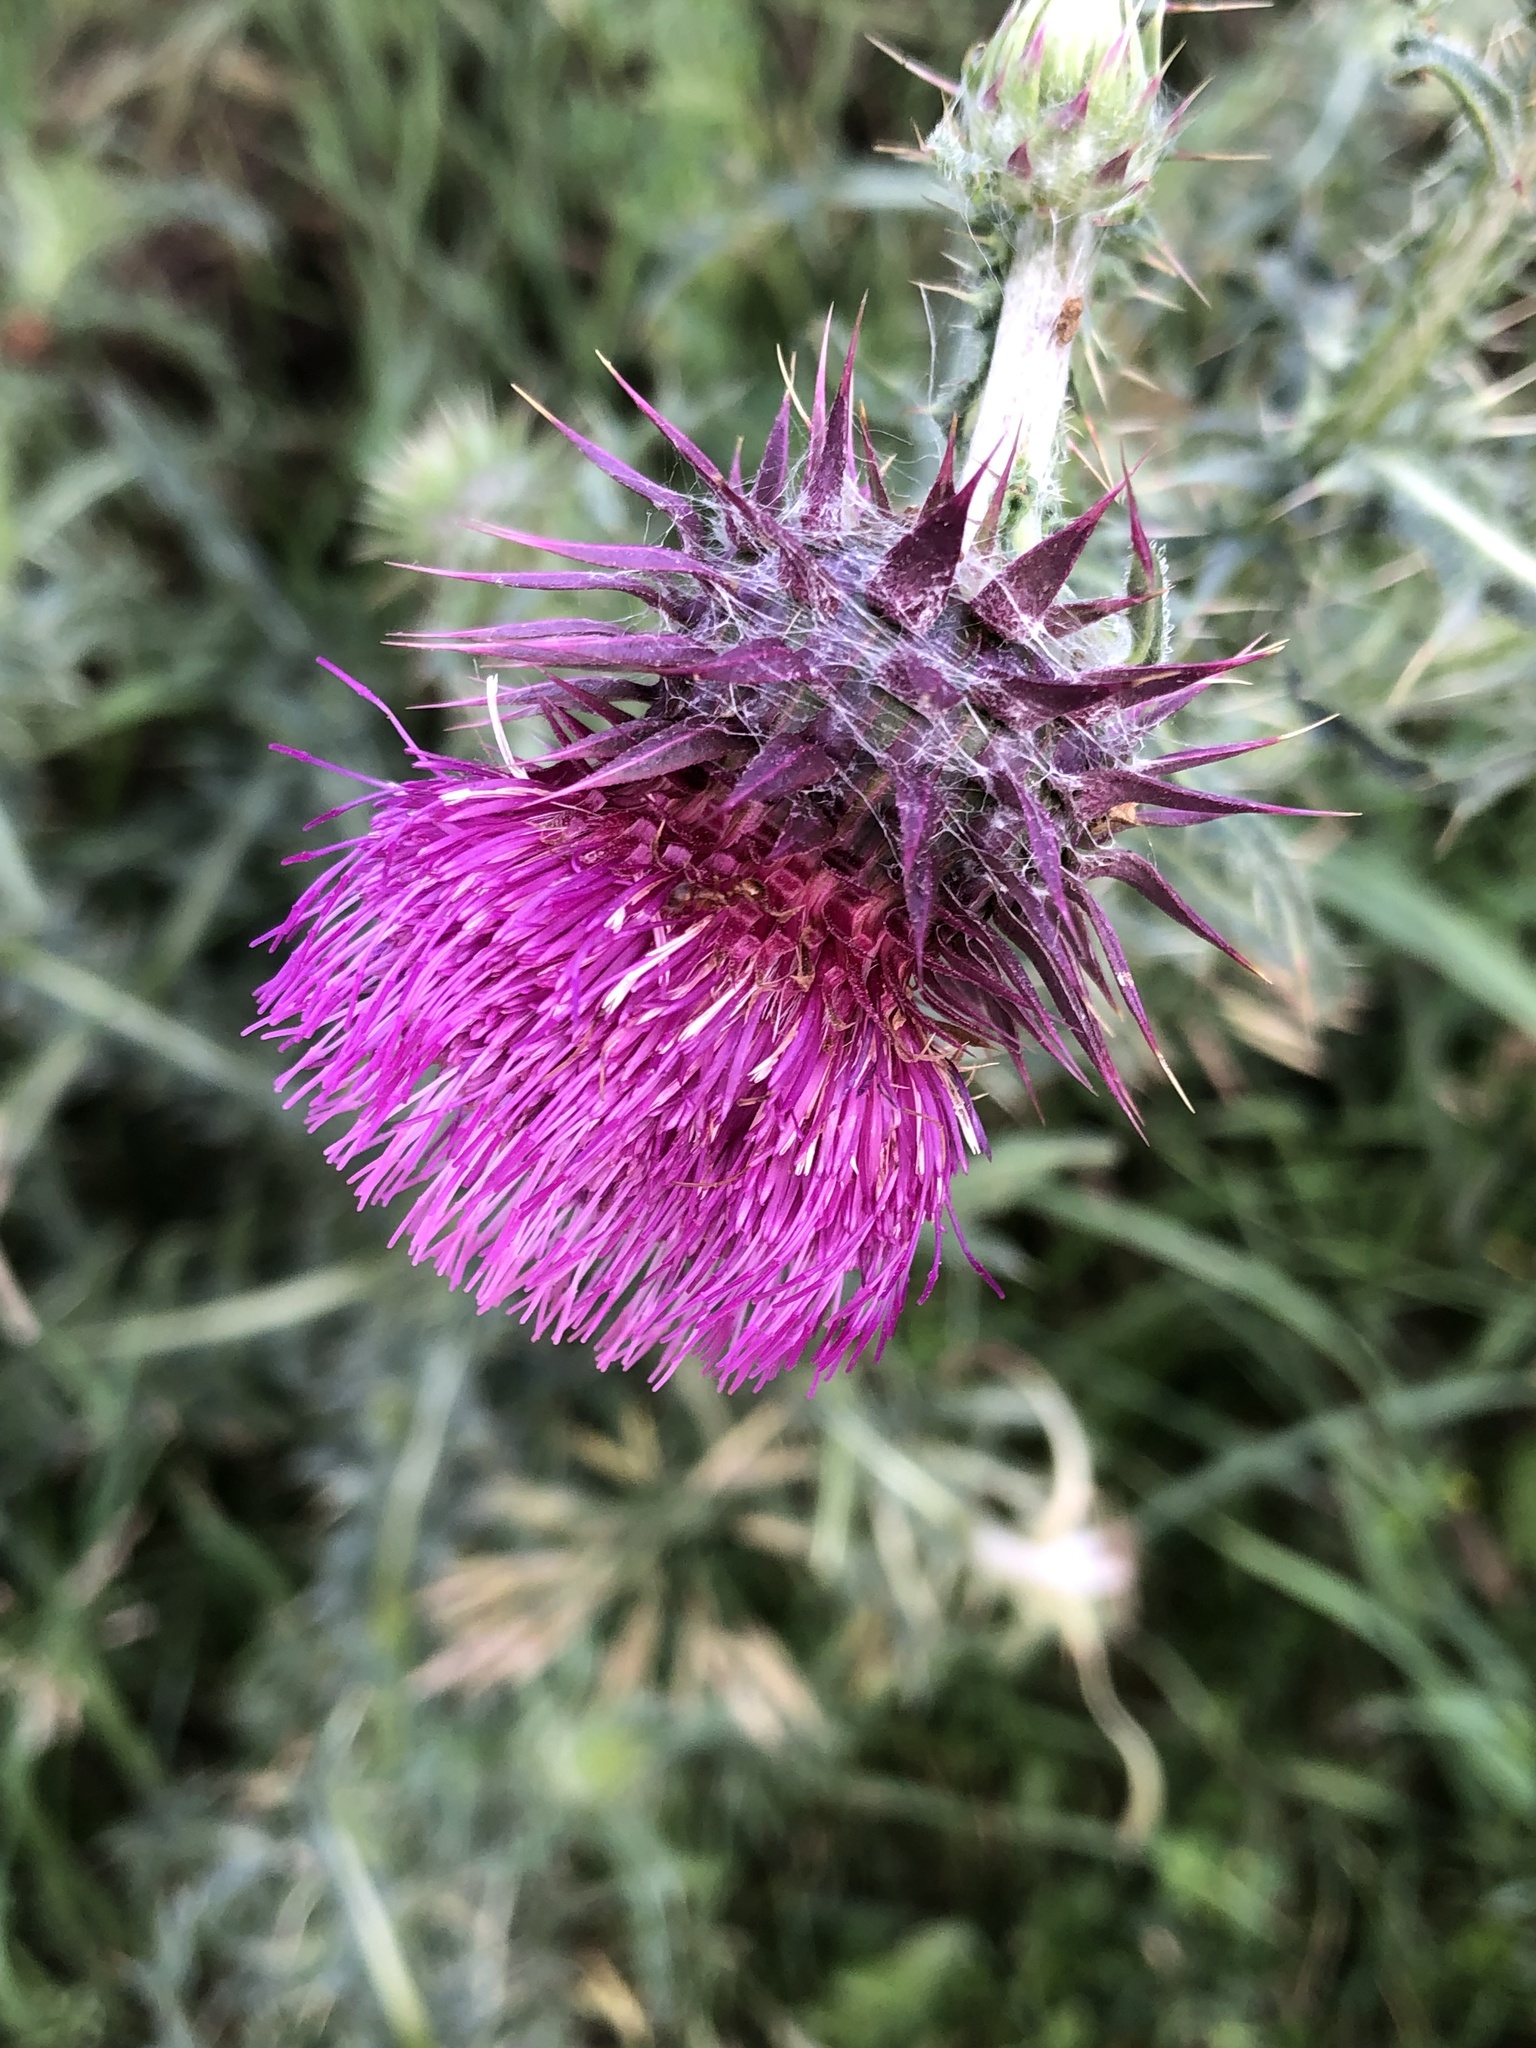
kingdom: Plantae
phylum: Tracheophyta
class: Magnoliopsida
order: Asterales
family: Asteraceae
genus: Carduus
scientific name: Carduus nutans
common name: Musk thistle
